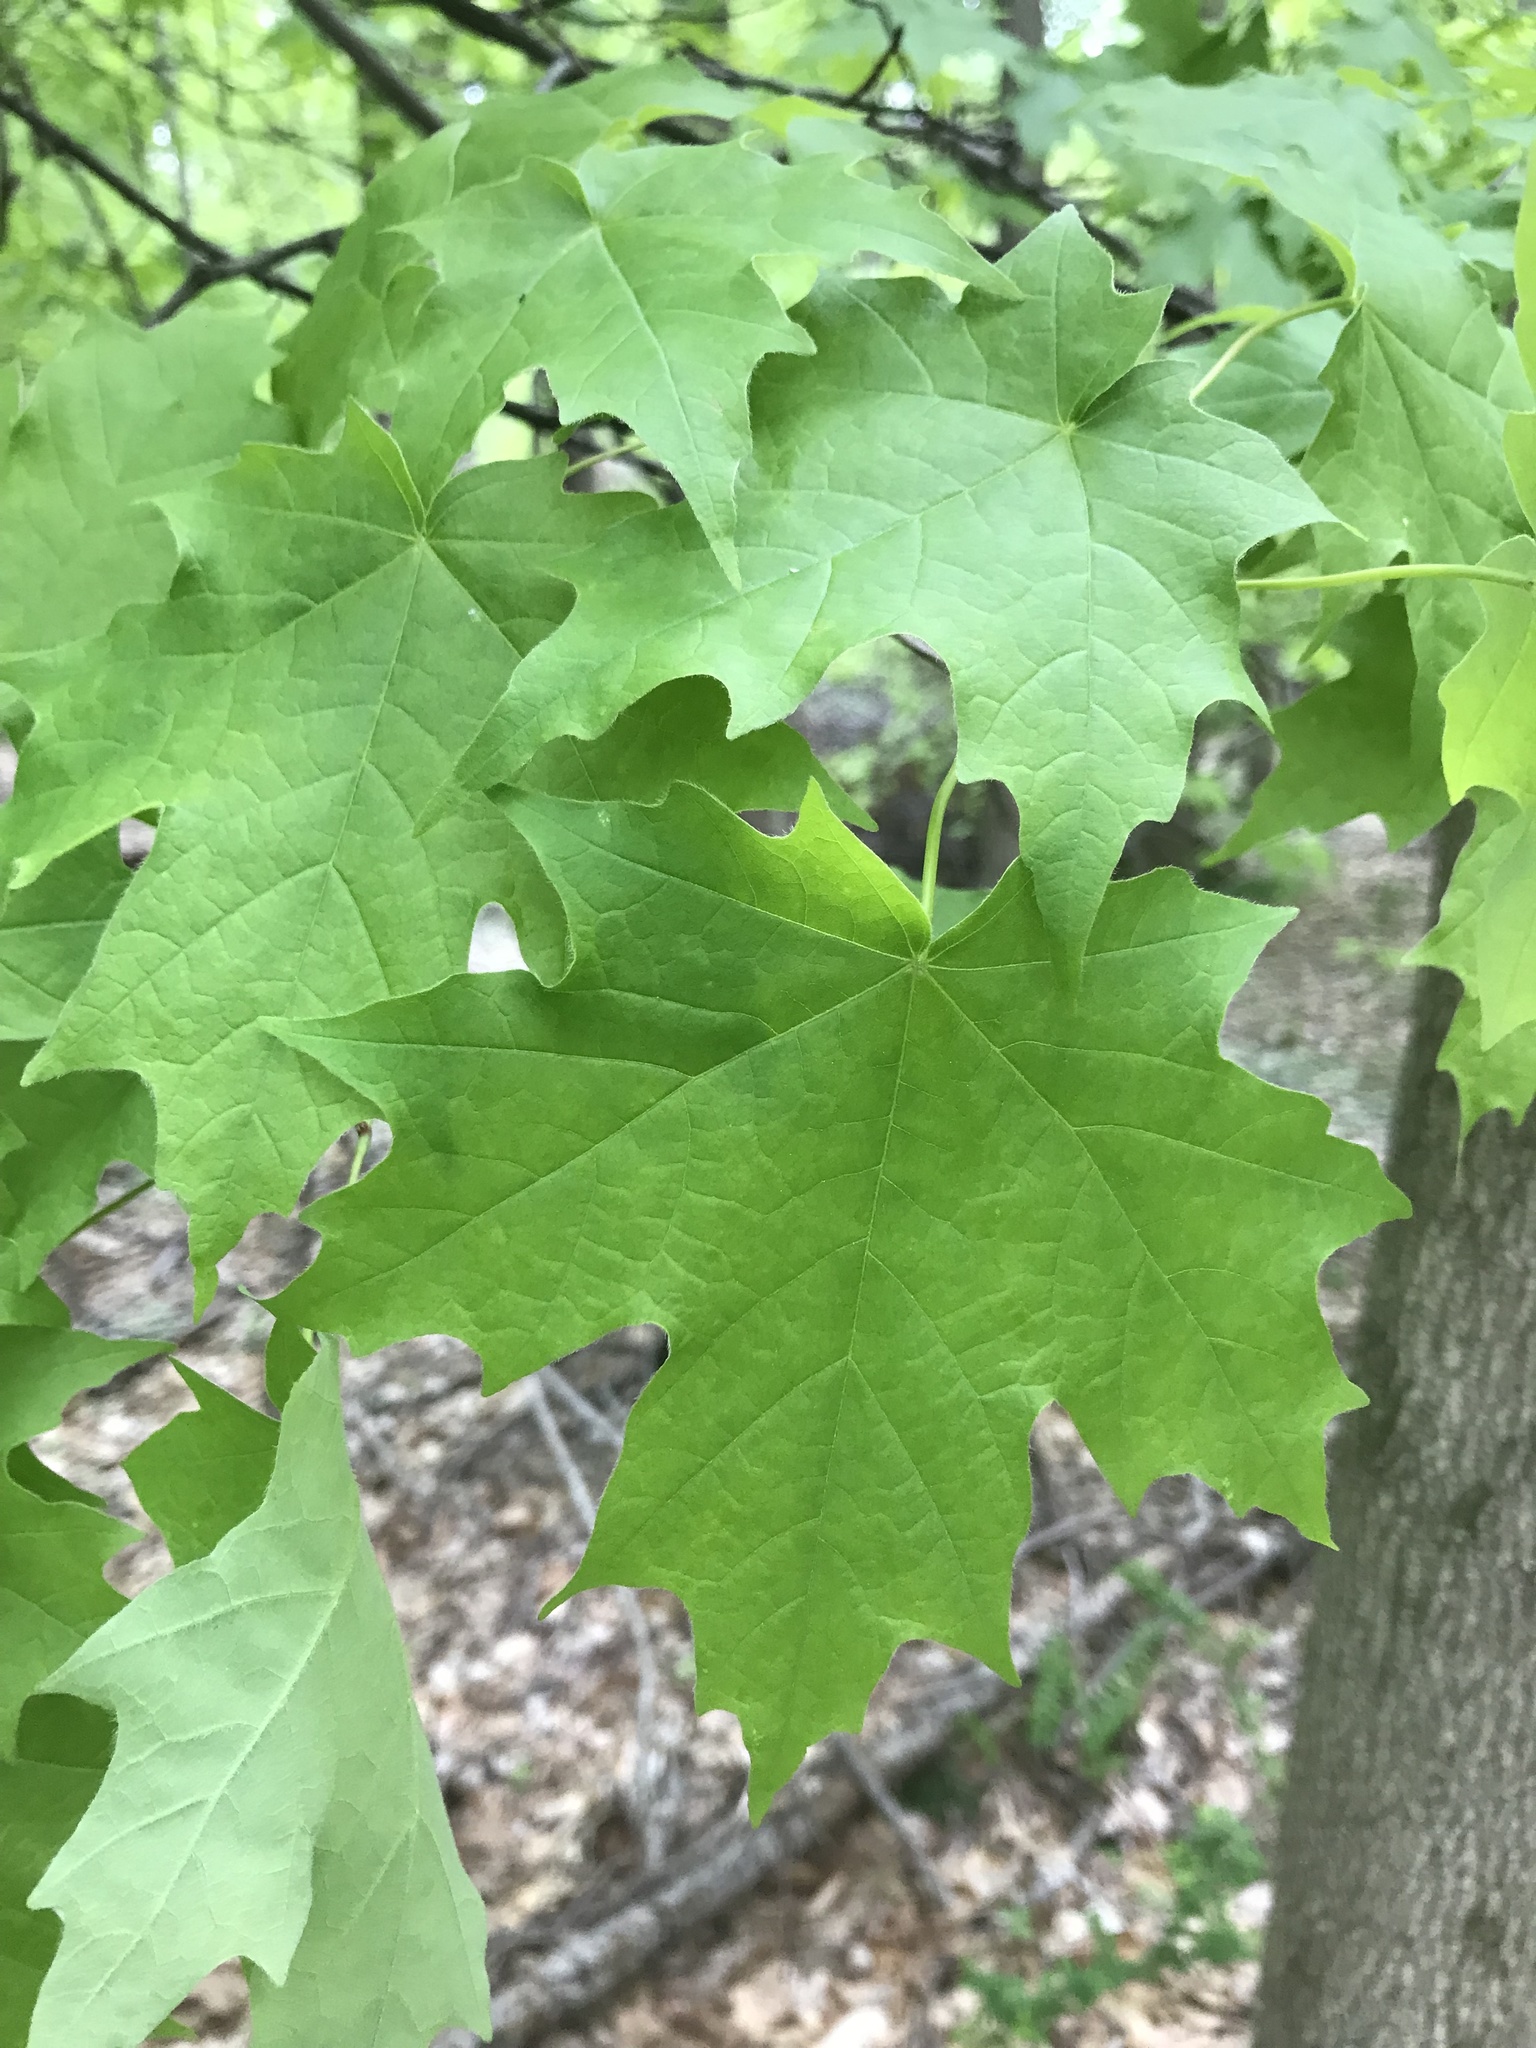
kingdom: Plantae
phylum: Tracheophyta
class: Magnoliopsida
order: Sapindales
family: Sapindaceae
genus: Acer
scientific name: Acer saccharum
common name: Sugar maple
